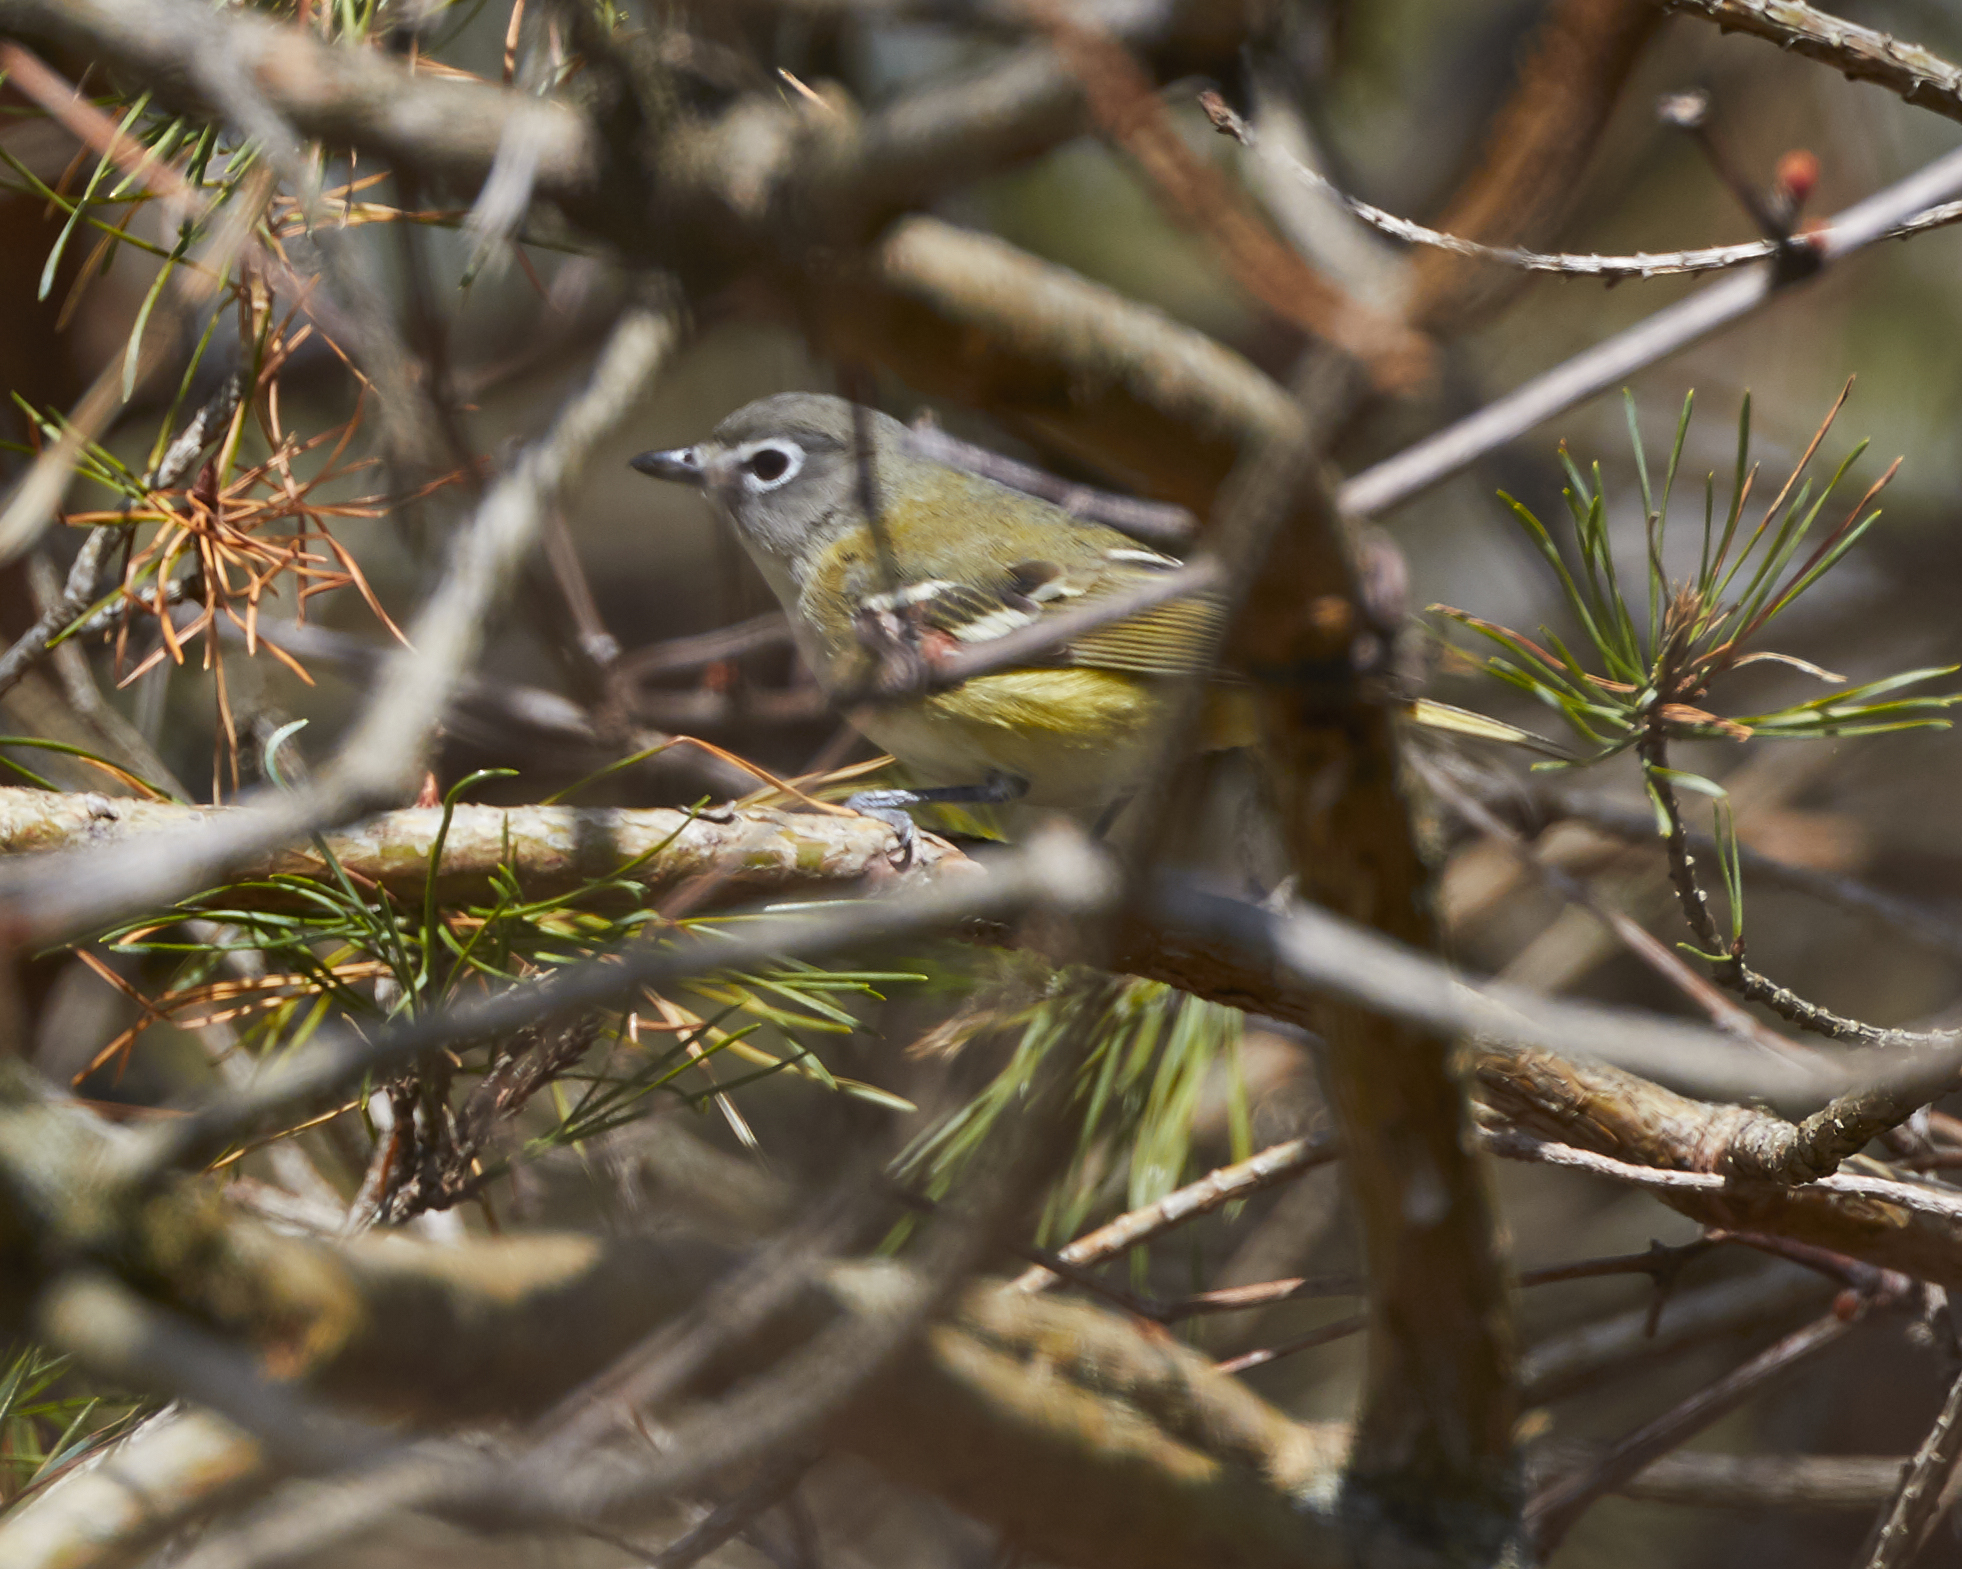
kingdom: Animalia
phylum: Chordata
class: Aves
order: Passeriformes
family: Vireonidae
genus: Vireo
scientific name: Vireo solitarius
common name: Blue-headed vireo
